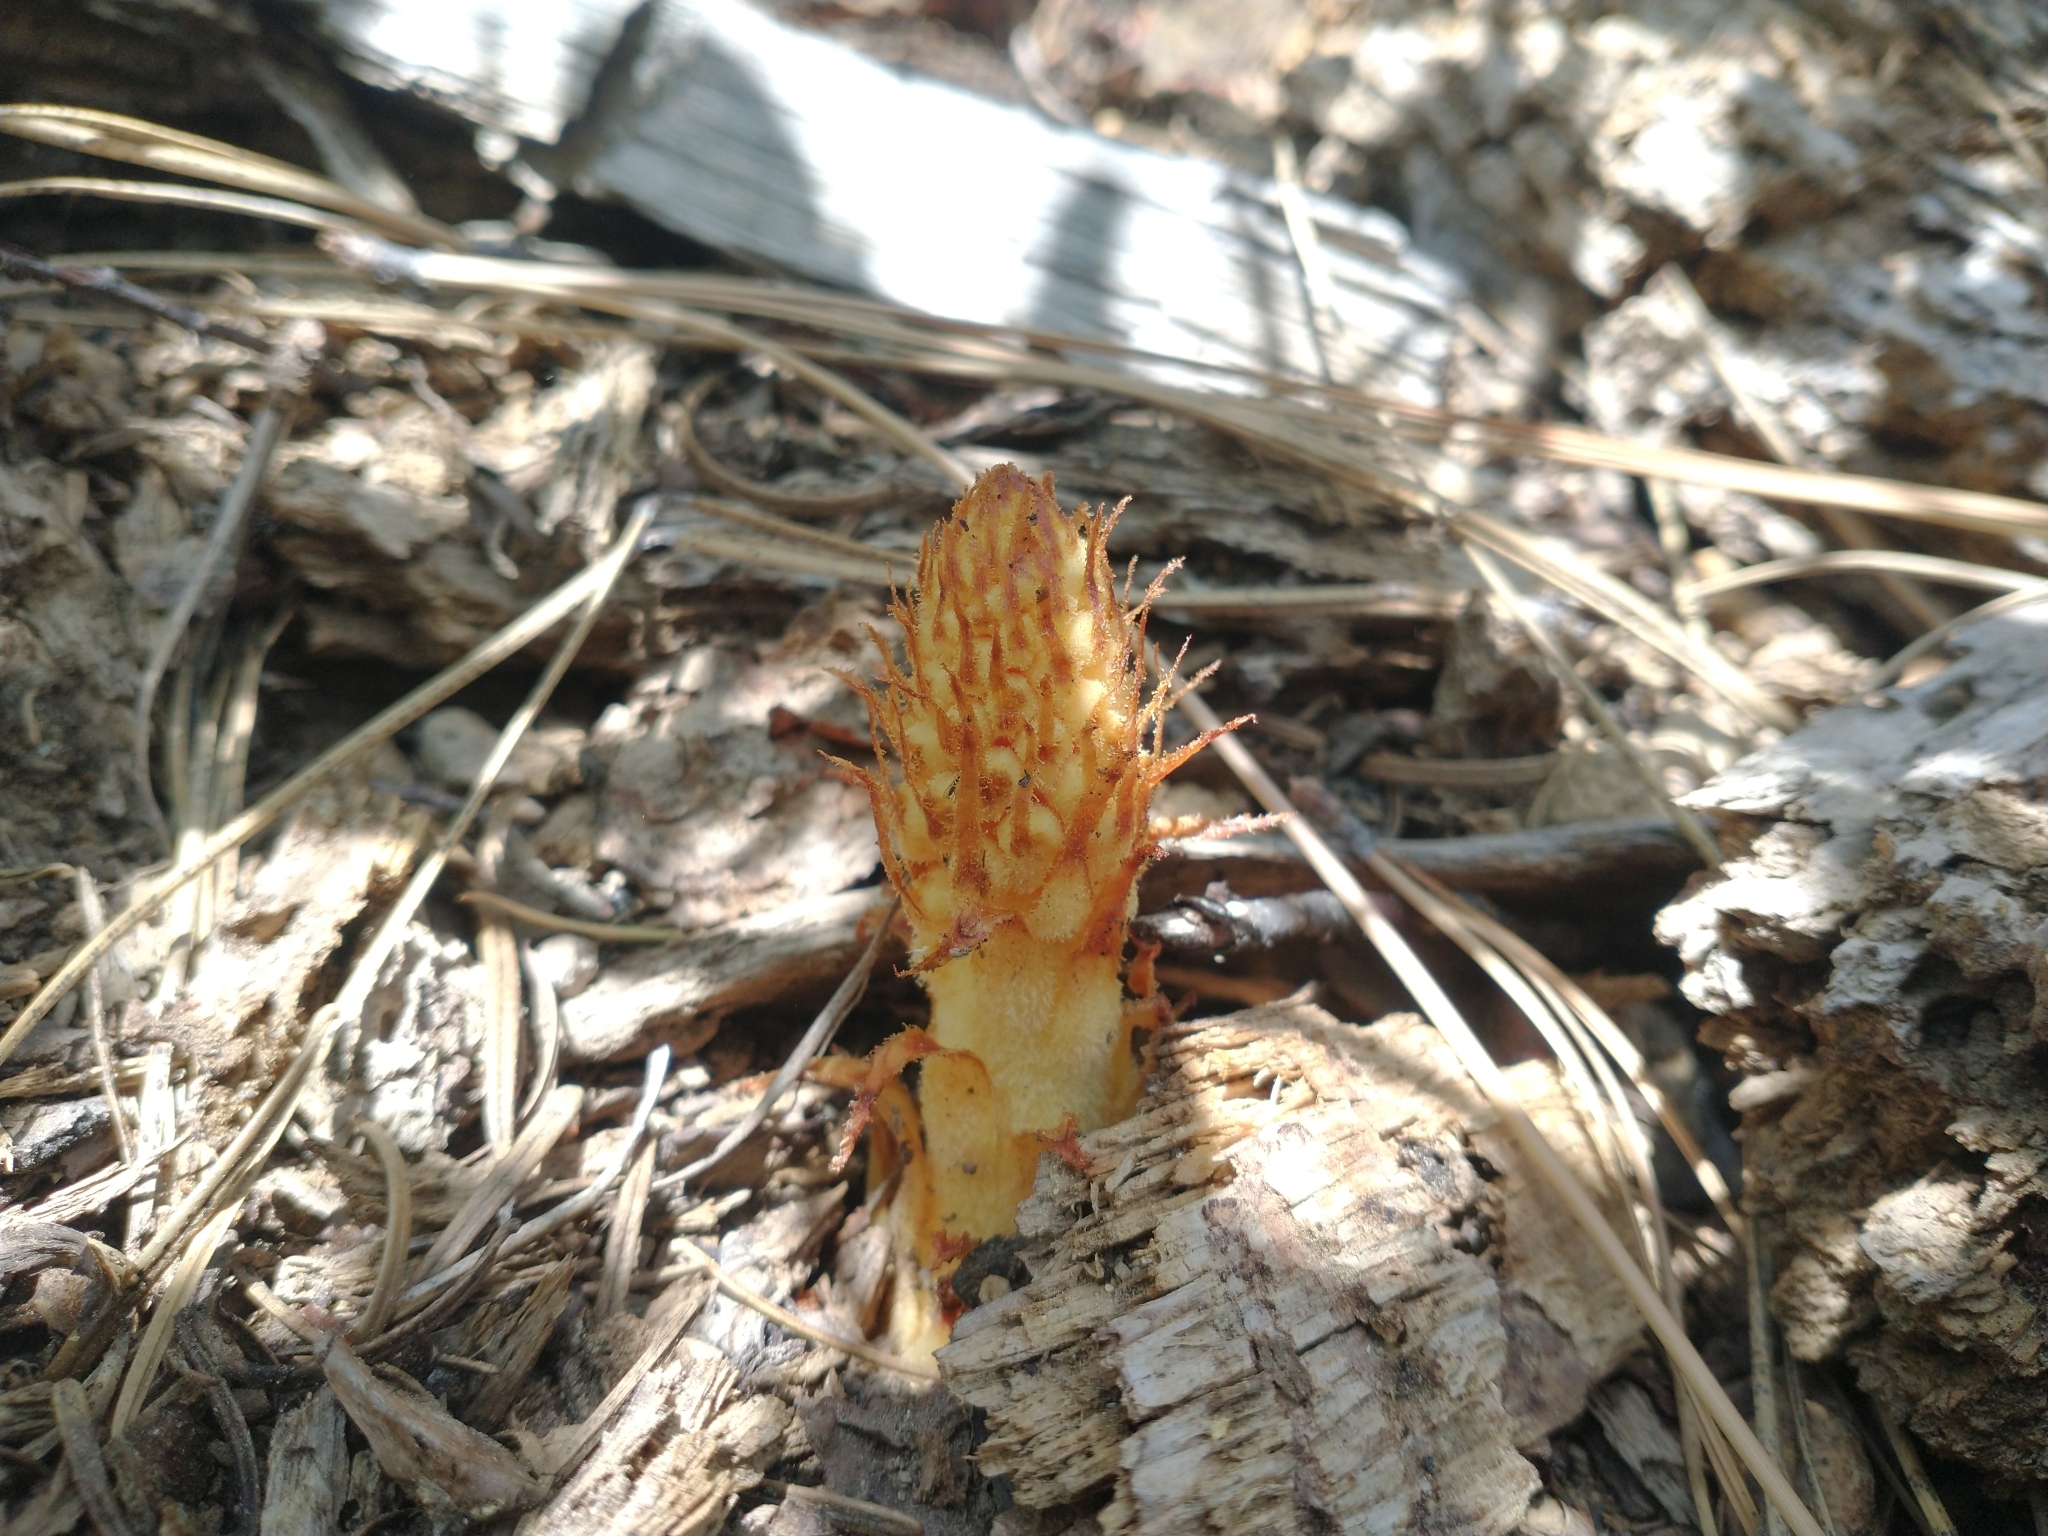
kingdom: Plantae
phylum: Tracheophyta
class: Magnoliopsida
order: Ericales
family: Ericaceae
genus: Pterospora
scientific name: Pterospora andromedea
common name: Giant bird's-nest
